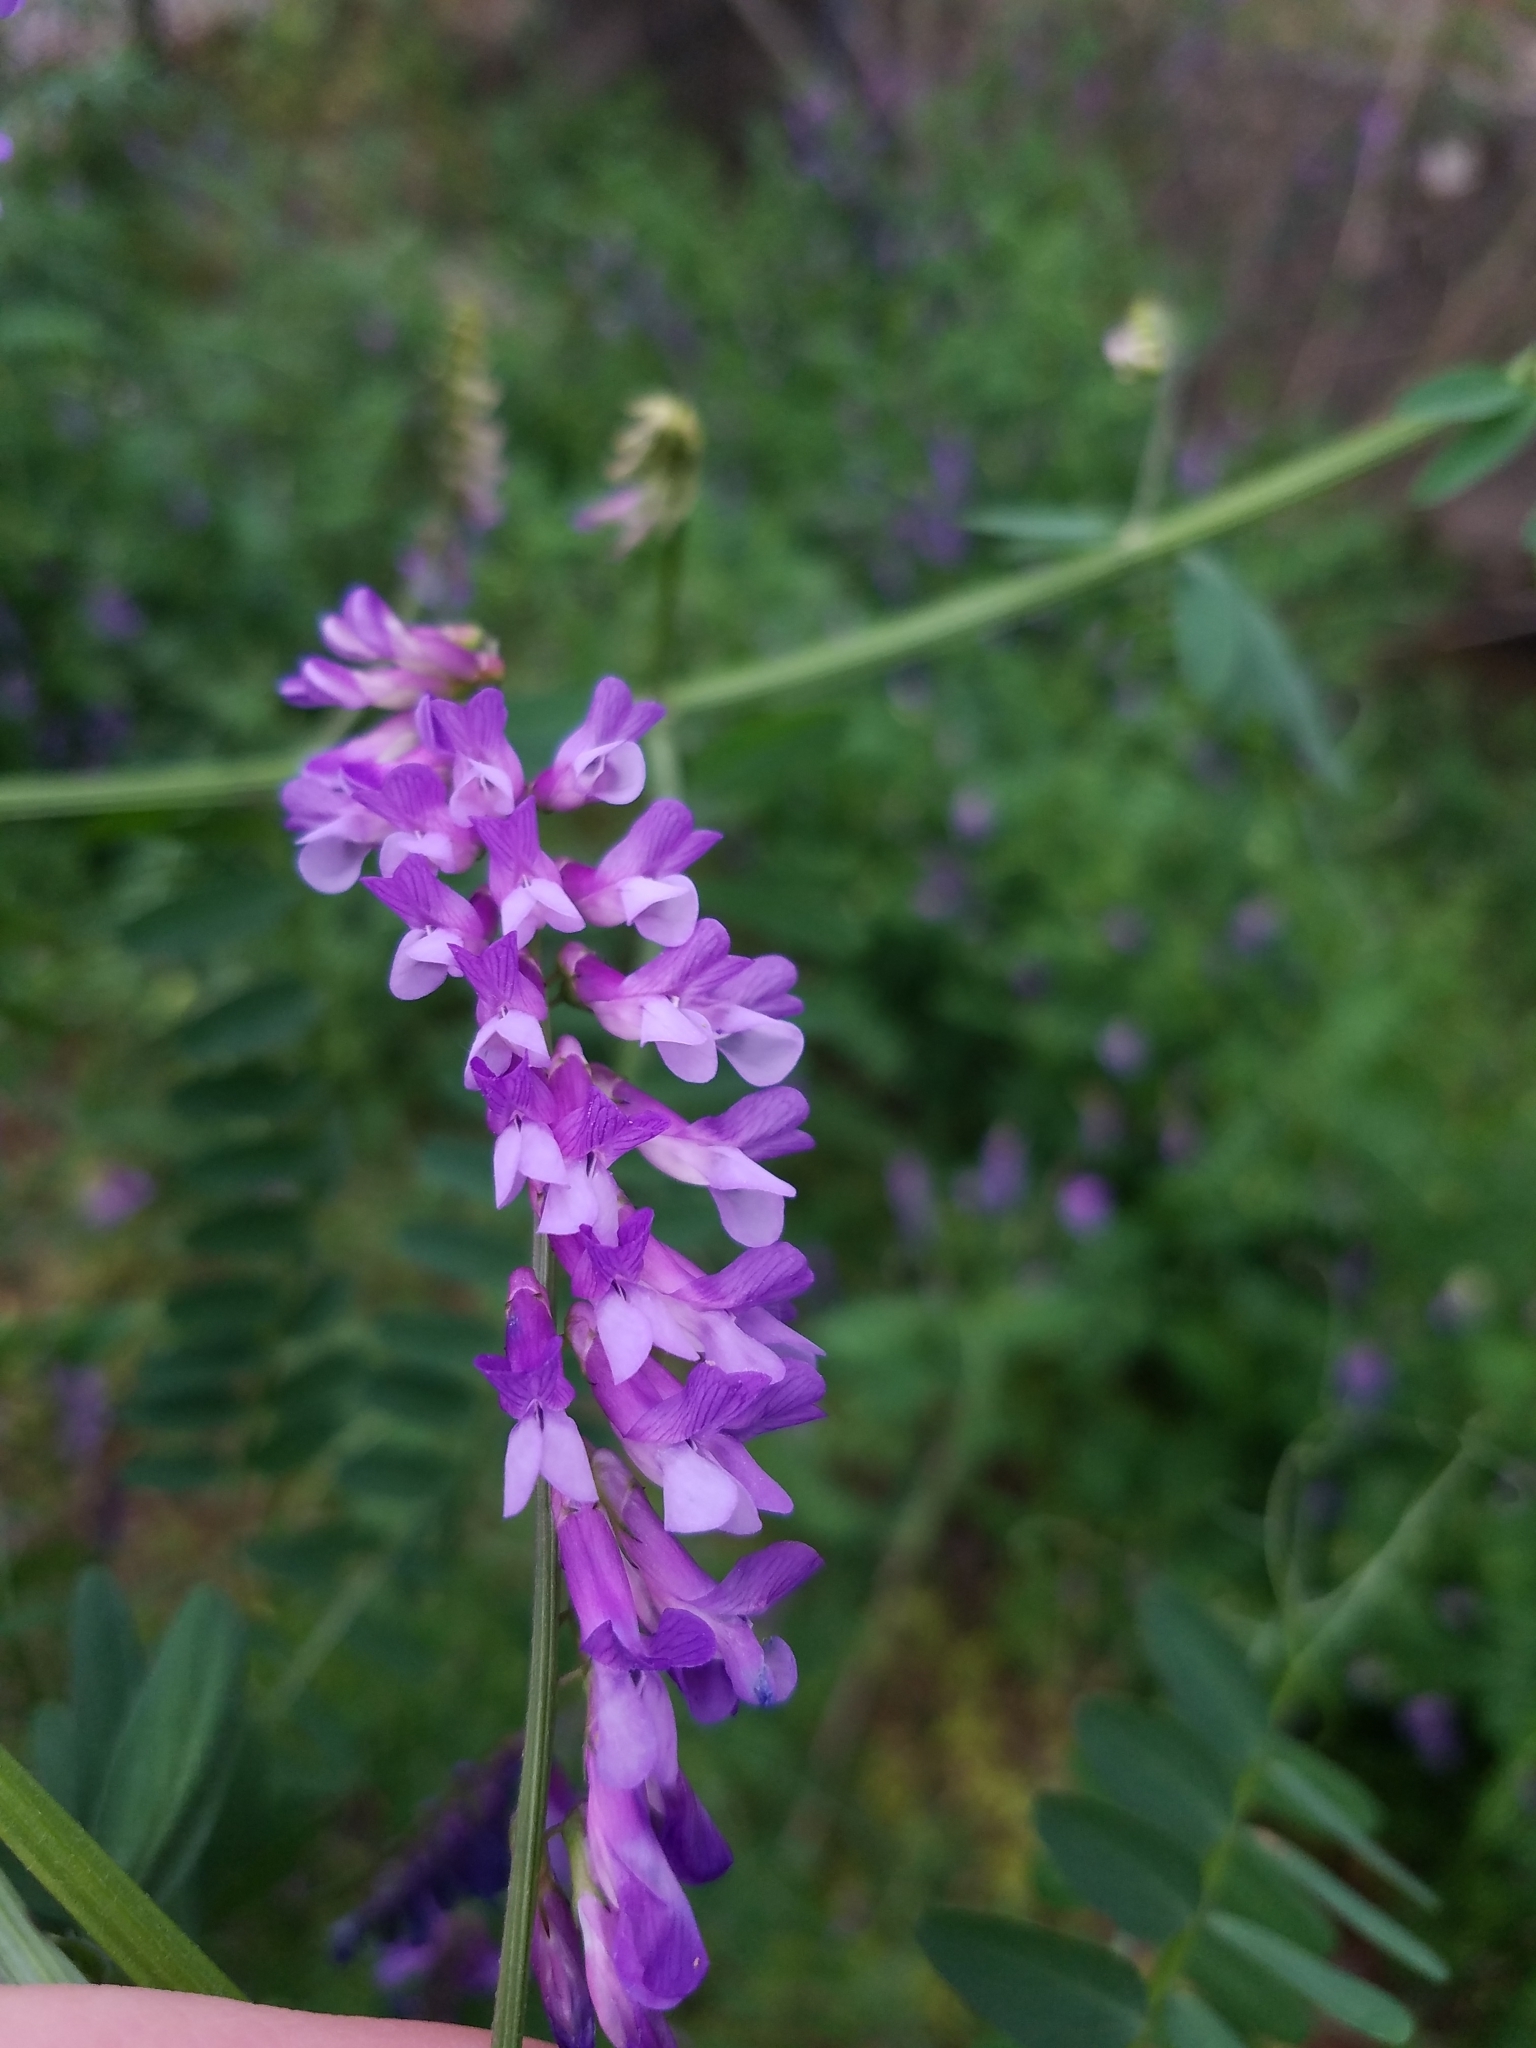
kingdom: Plantae
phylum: Tracheophyta
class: Magnoliopsida
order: Fabales
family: Fabaceae
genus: Vicia
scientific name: Vicia villosa
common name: Fodder vetch
